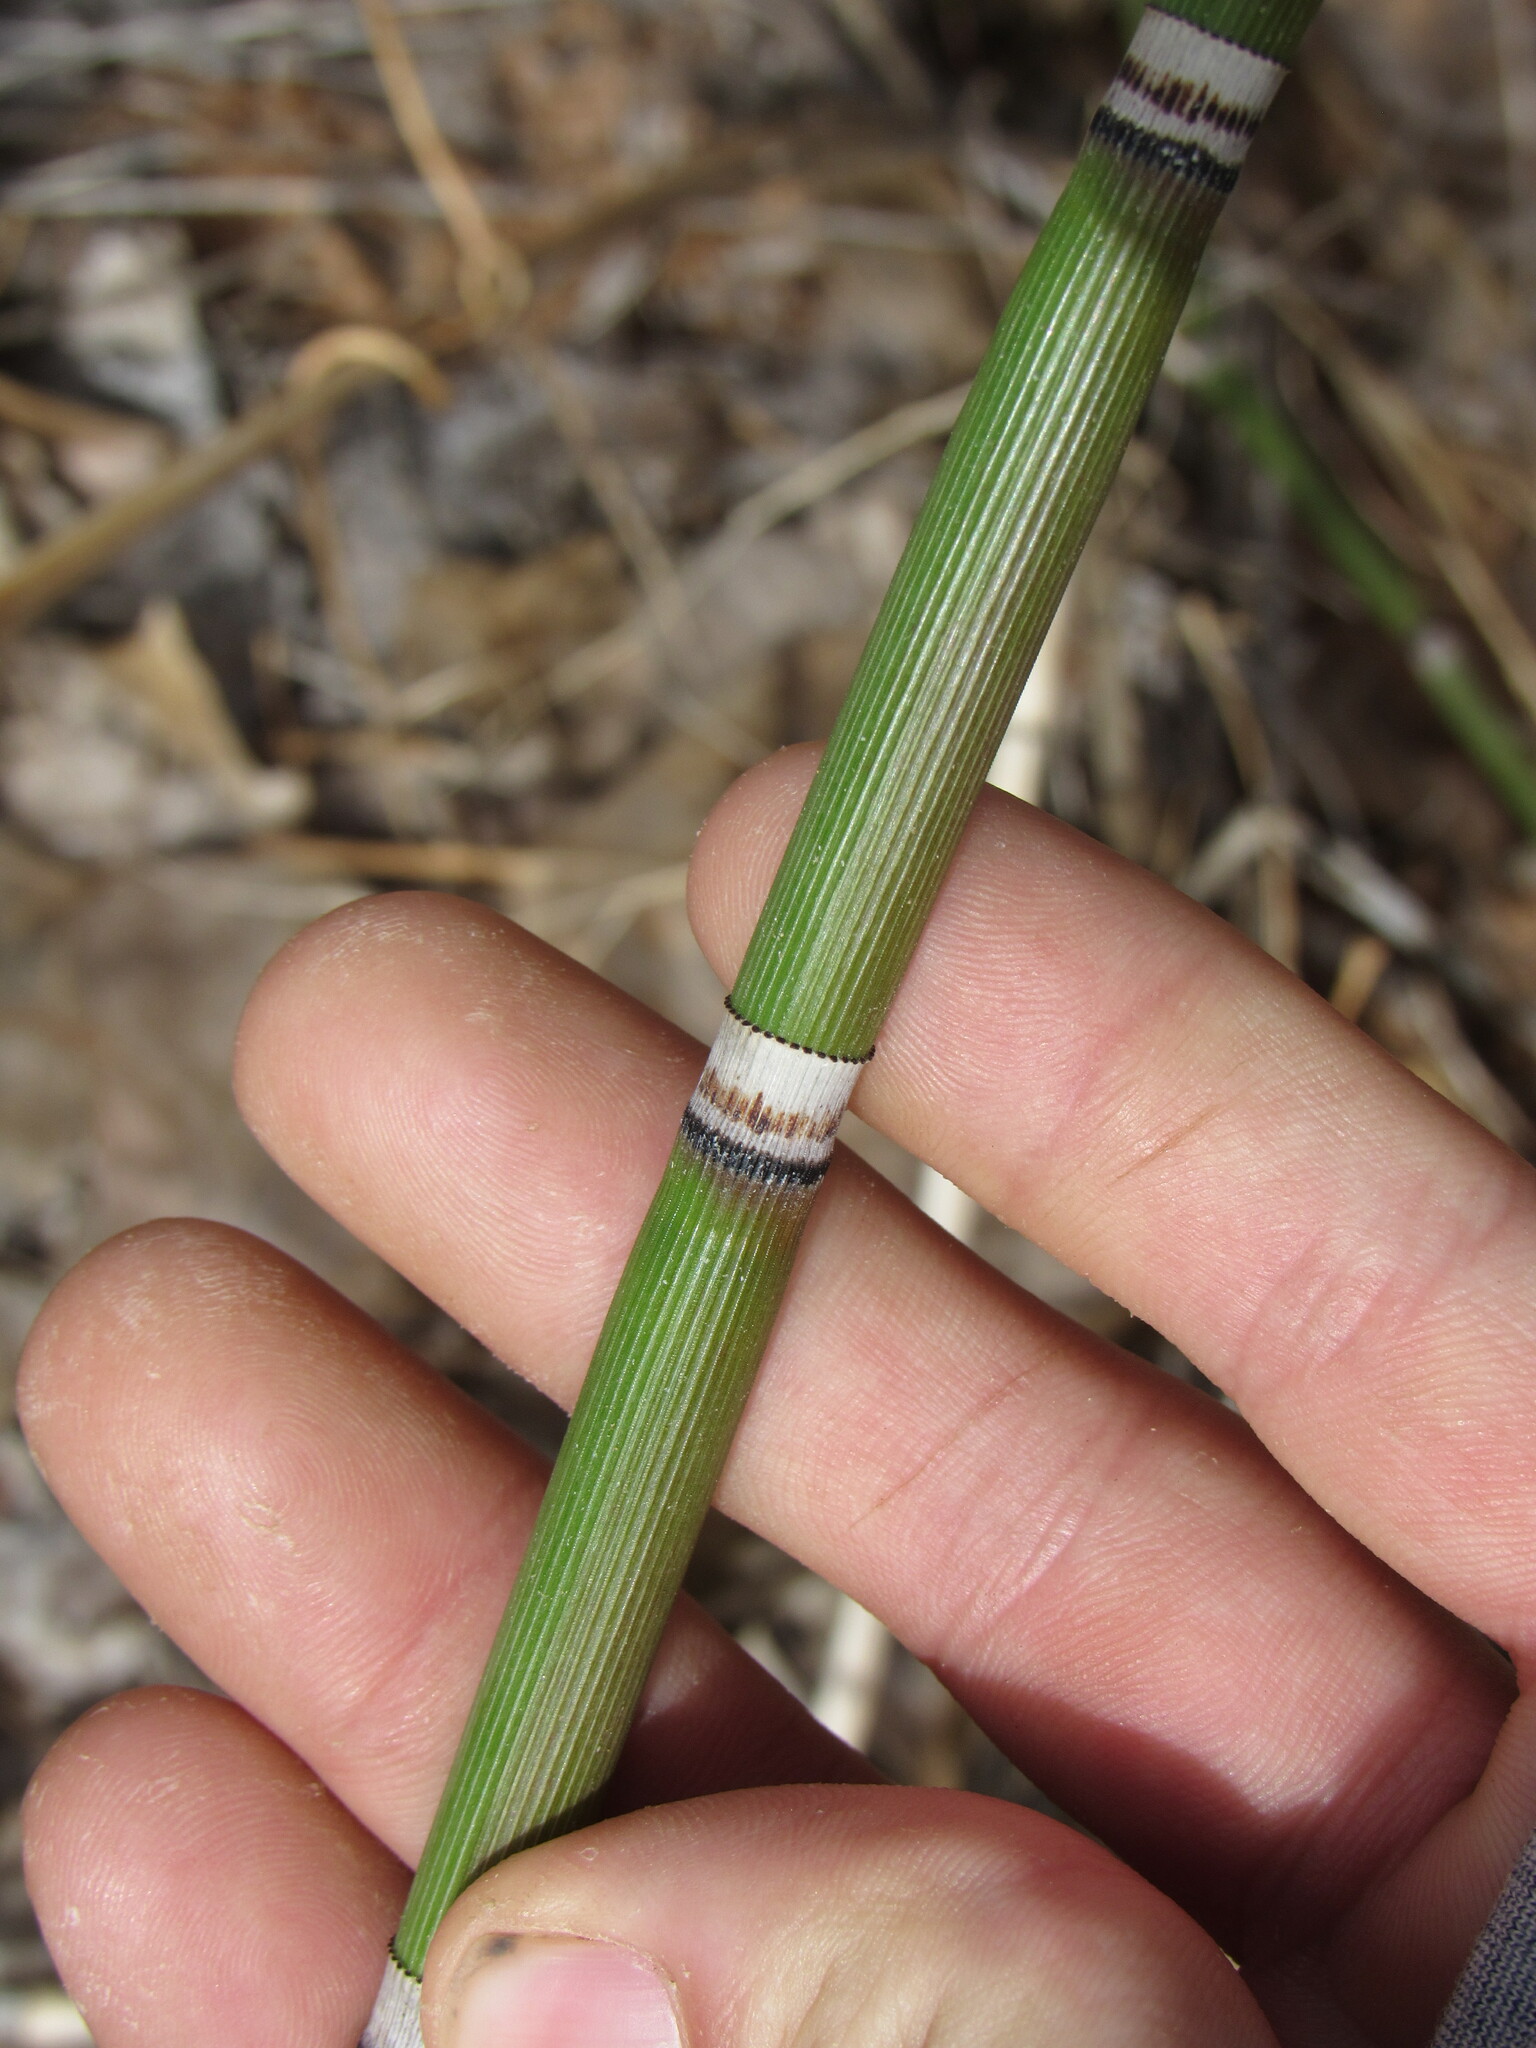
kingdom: Plantae
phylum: Tracheophyta
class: Polypodiopsida
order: Equisetales
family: Equisetaceae
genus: Equisetum
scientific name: Equisetum hyemale
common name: Rough horsetail
